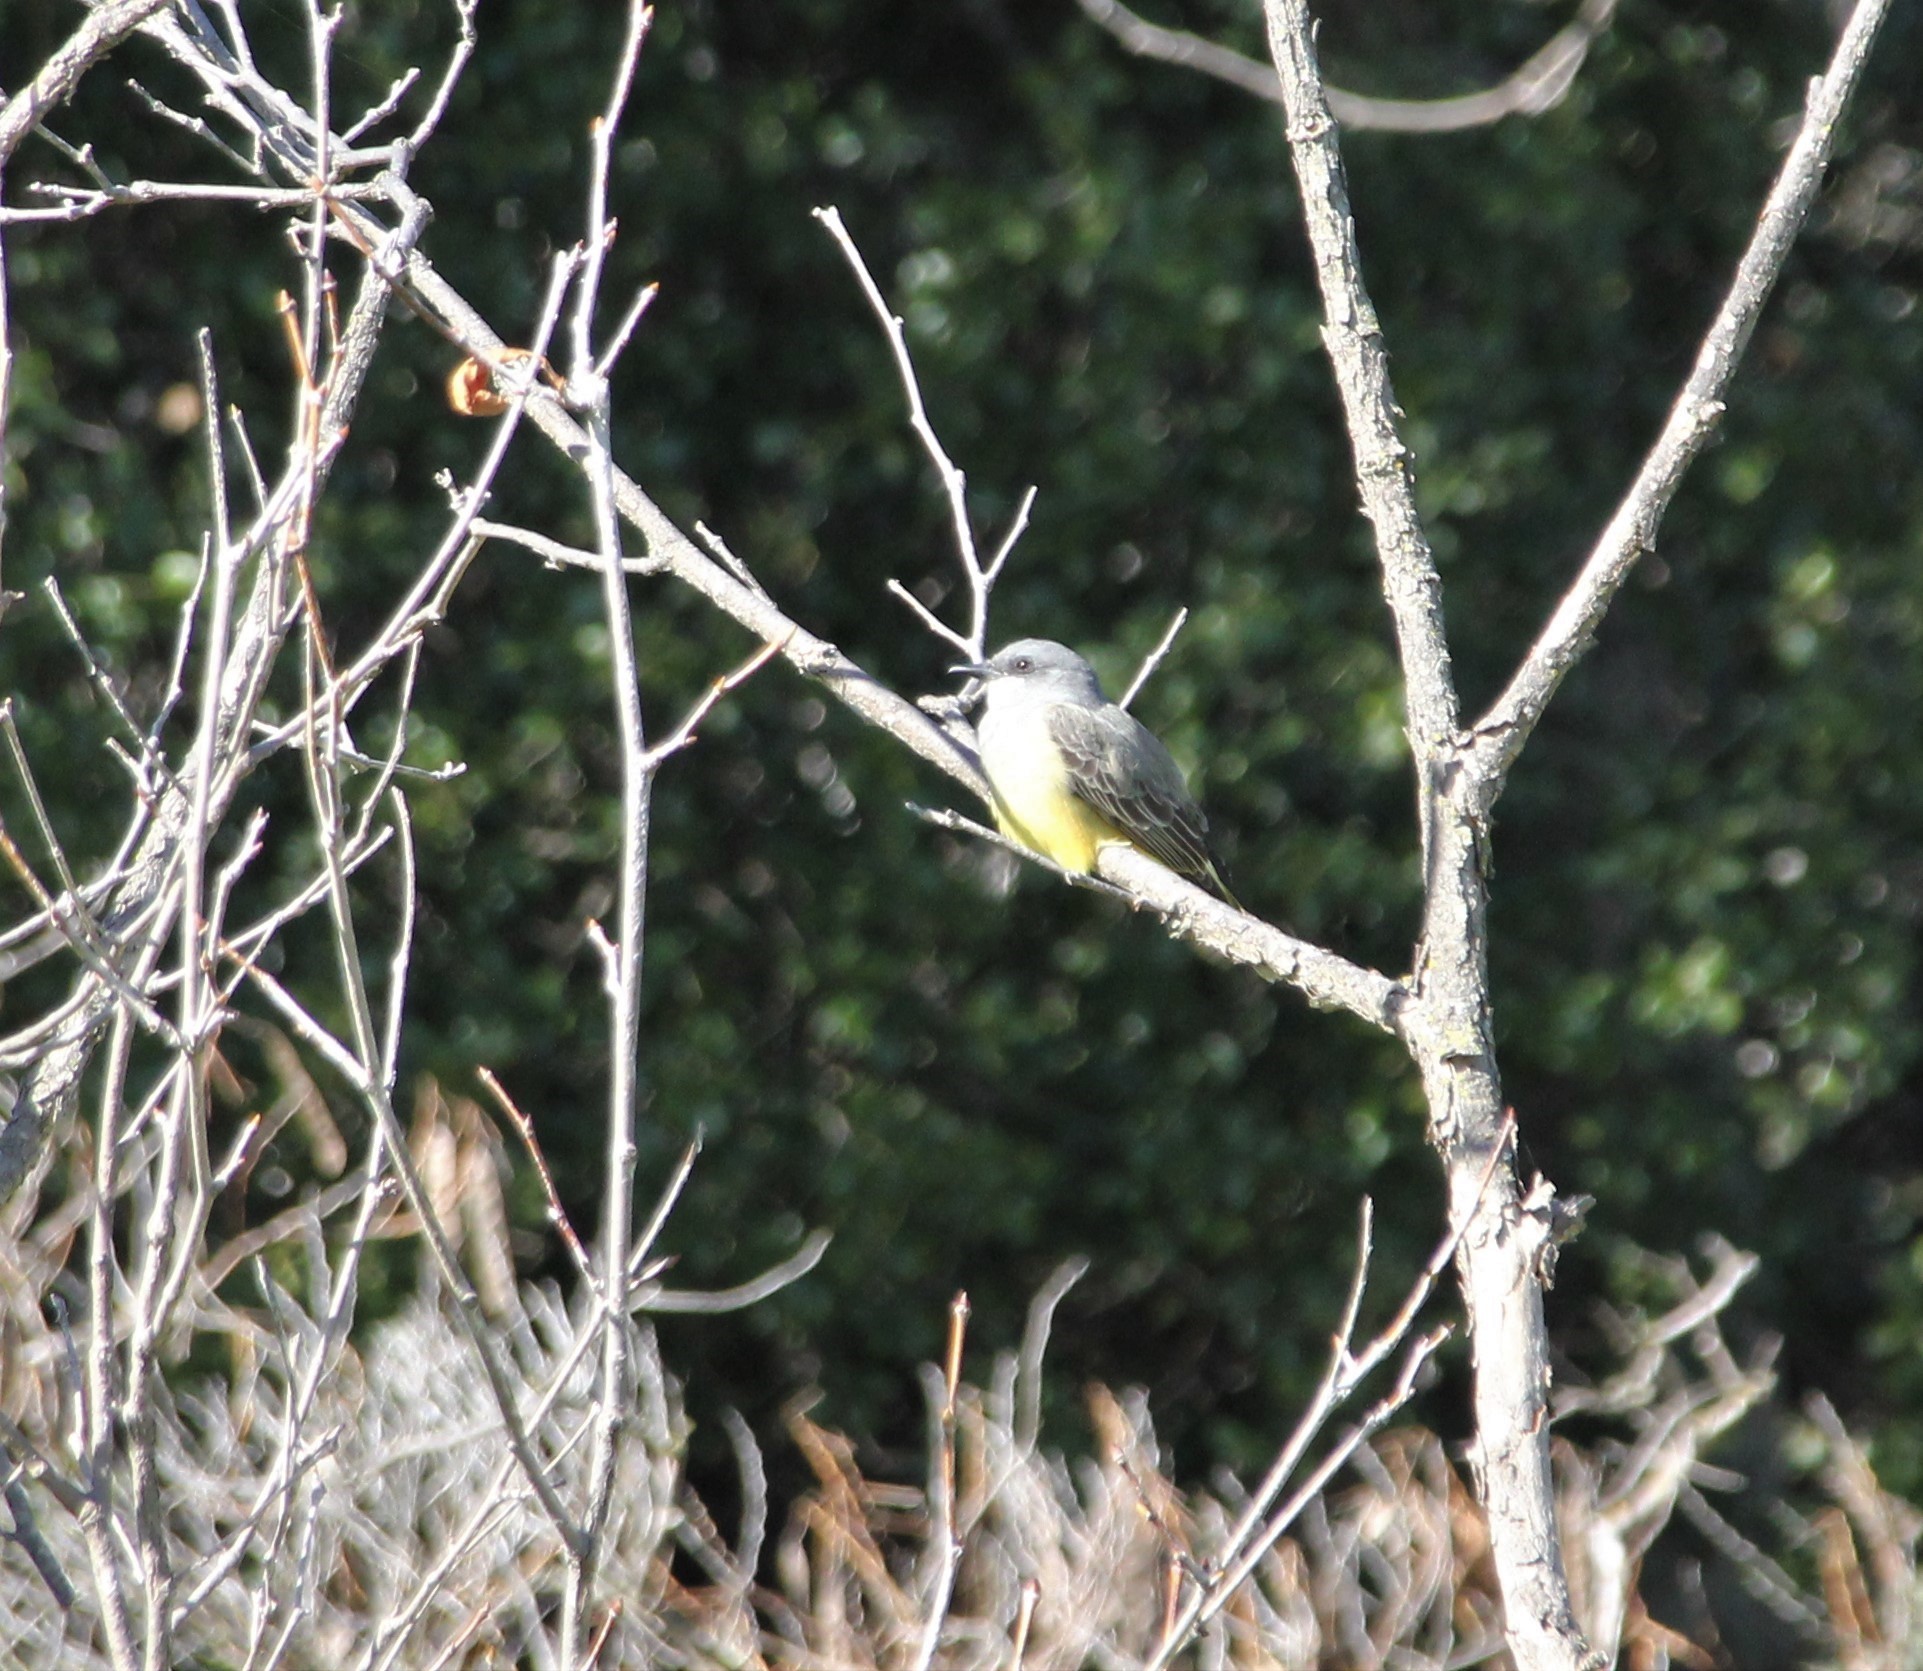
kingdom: Animalia
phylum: Chordata
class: Aves
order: Passeriformes
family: Tyrannidae
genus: Tyrannus
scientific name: Tyrannus vociferans
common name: Cassin's kingbird
